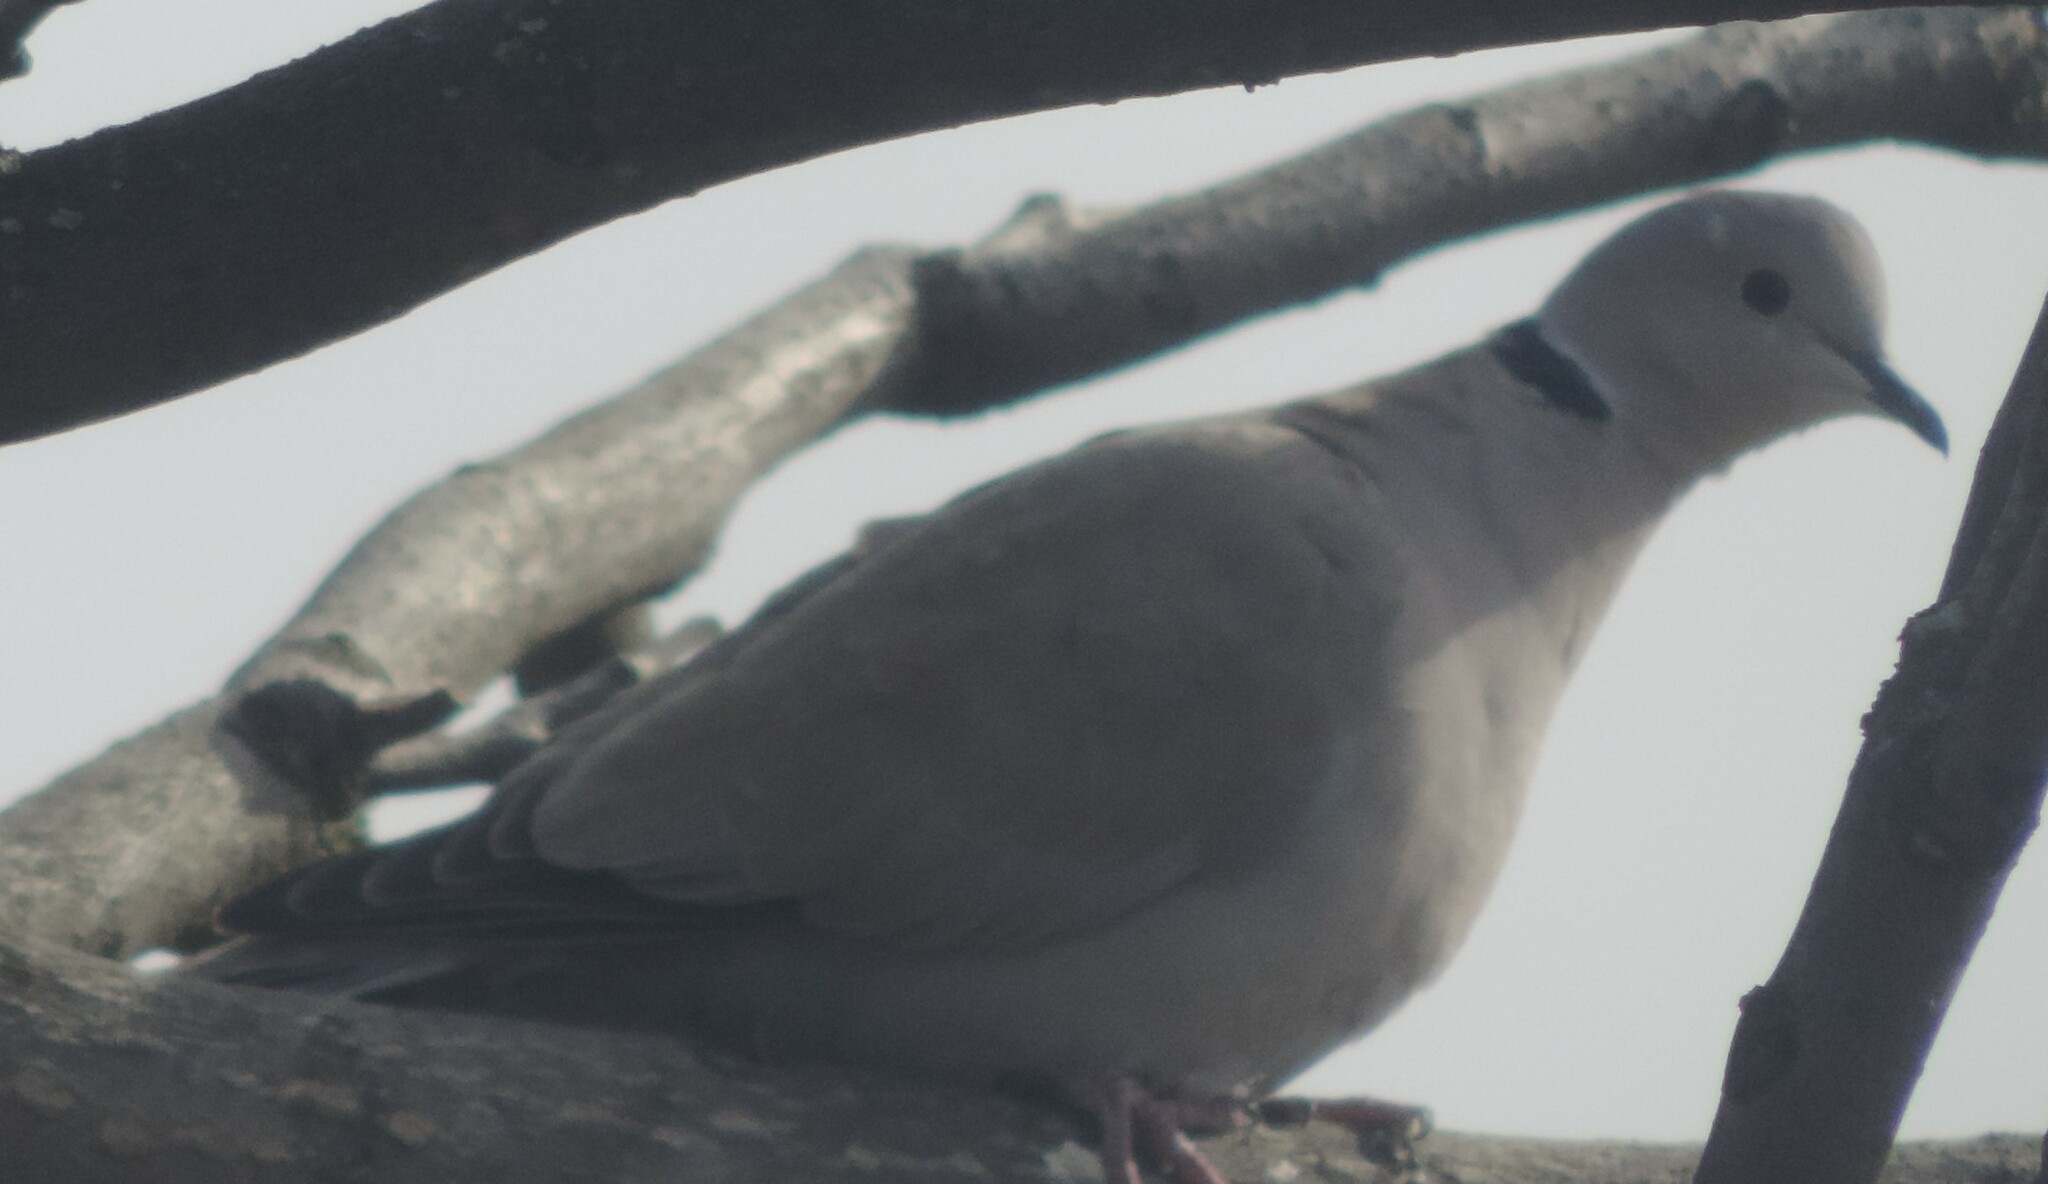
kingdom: Animalia
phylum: Chordata
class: Aves
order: Columbiformes
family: Columbidae
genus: Streptopelia
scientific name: Streptopelia decaocto
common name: Eurasian collared dove
